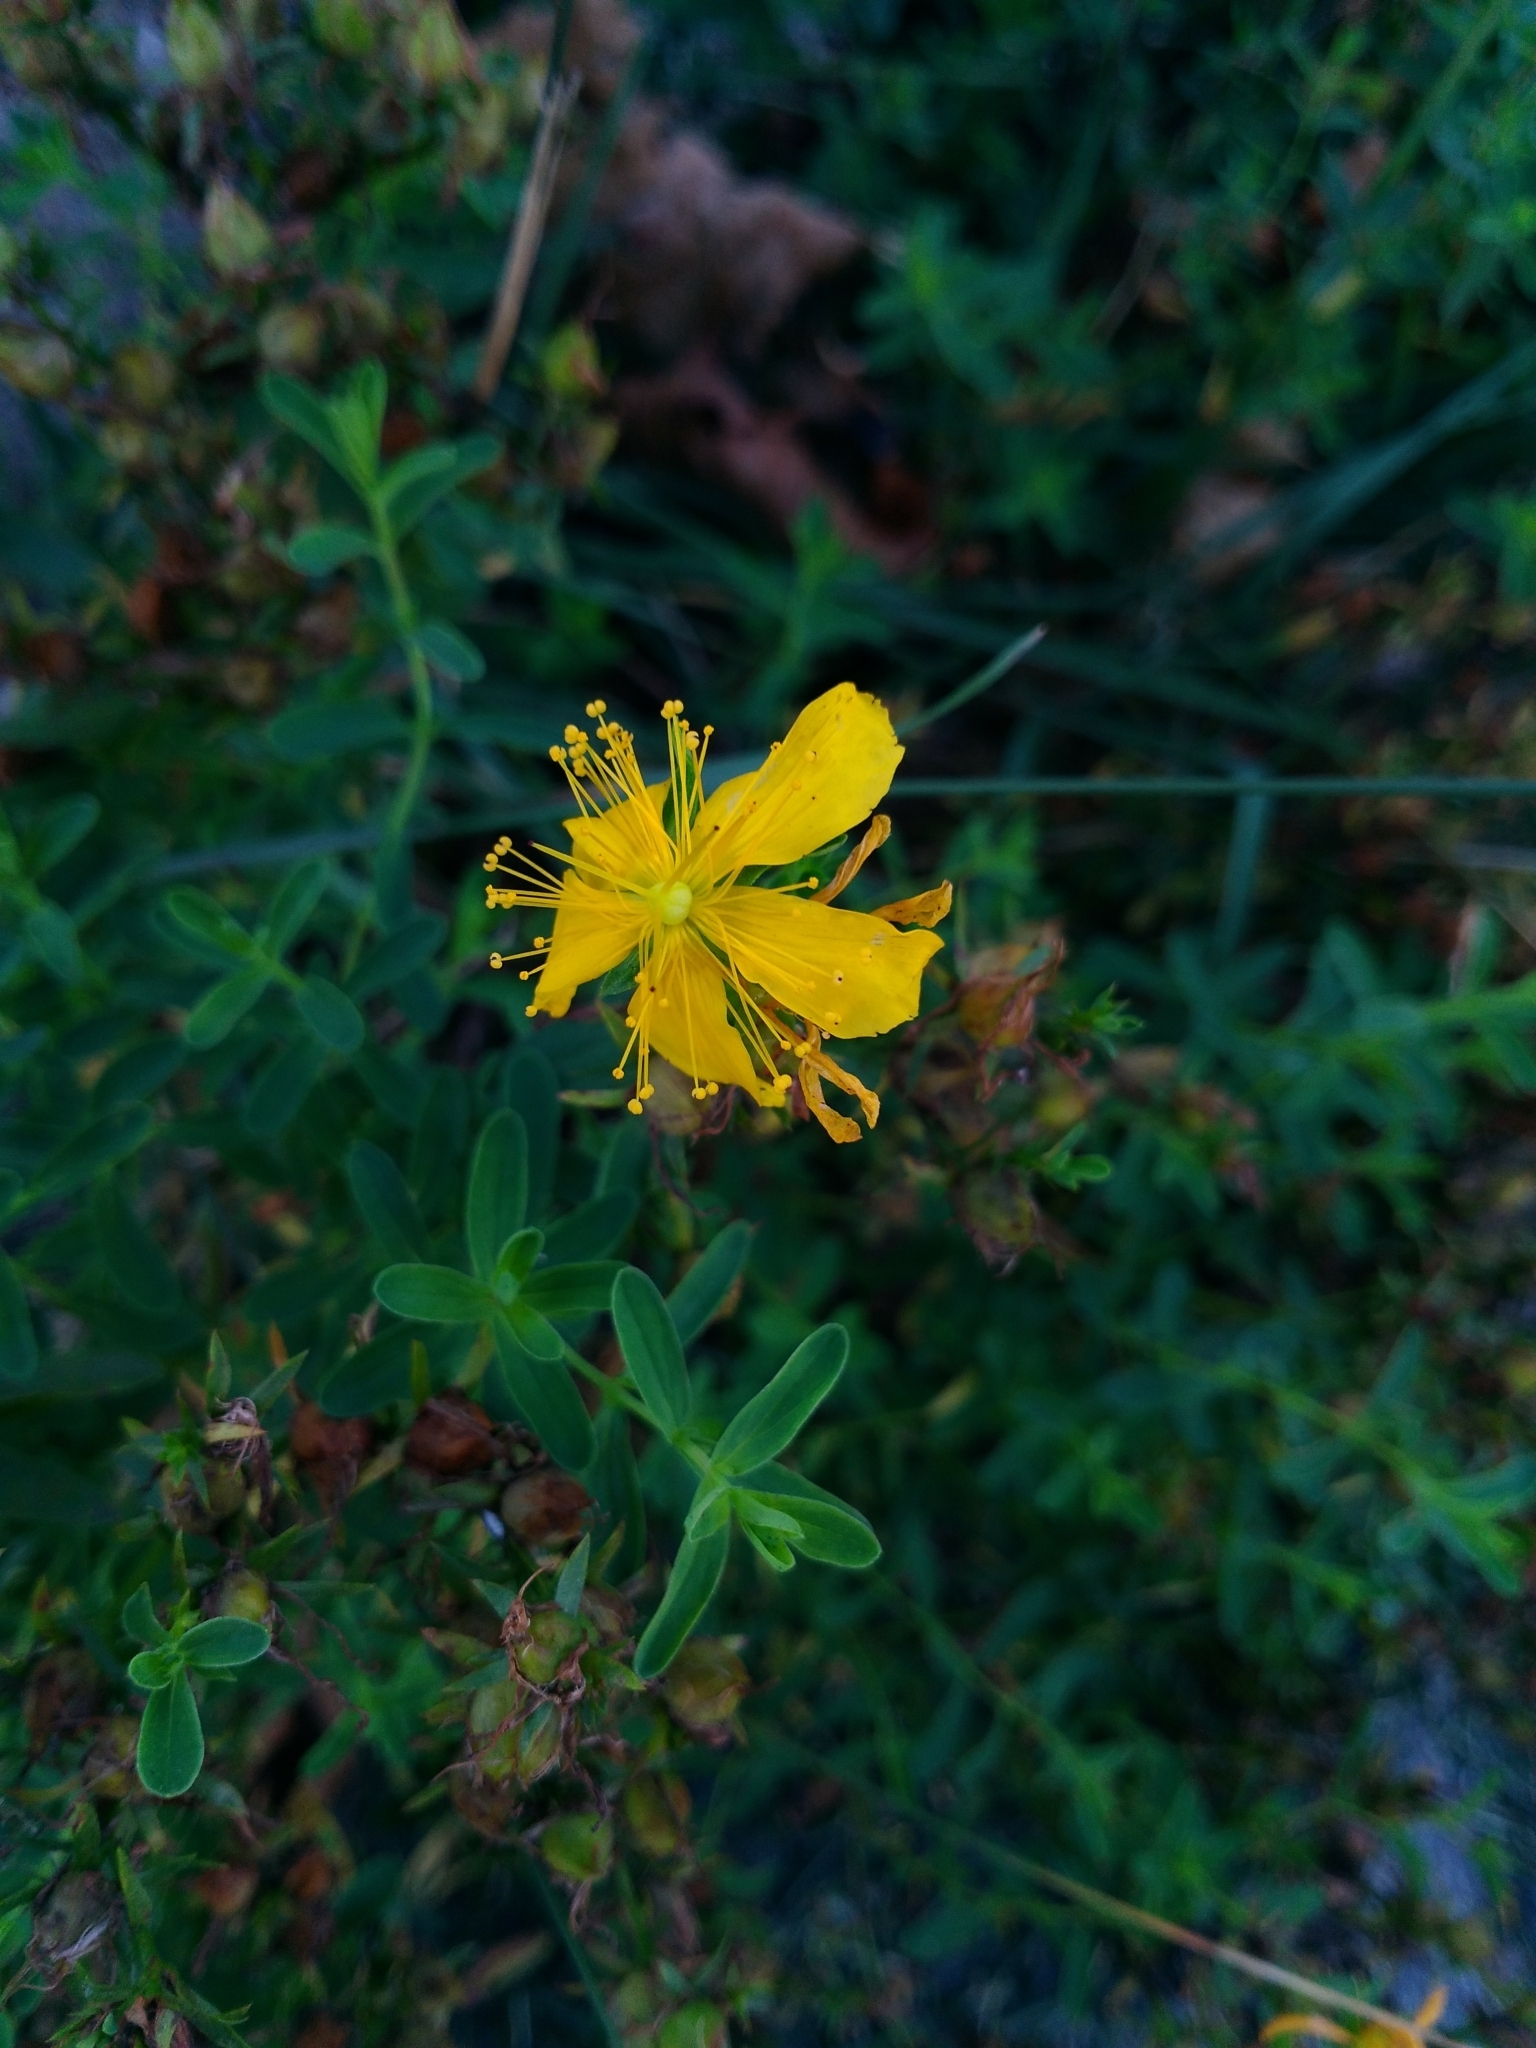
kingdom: Plantae
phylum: Tracheophyta
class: Magnoliopsida
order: Malpighiales
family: Hypericaceae
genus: Hypericum
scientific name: Hypericum perforatum
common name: Common st. johnswort
